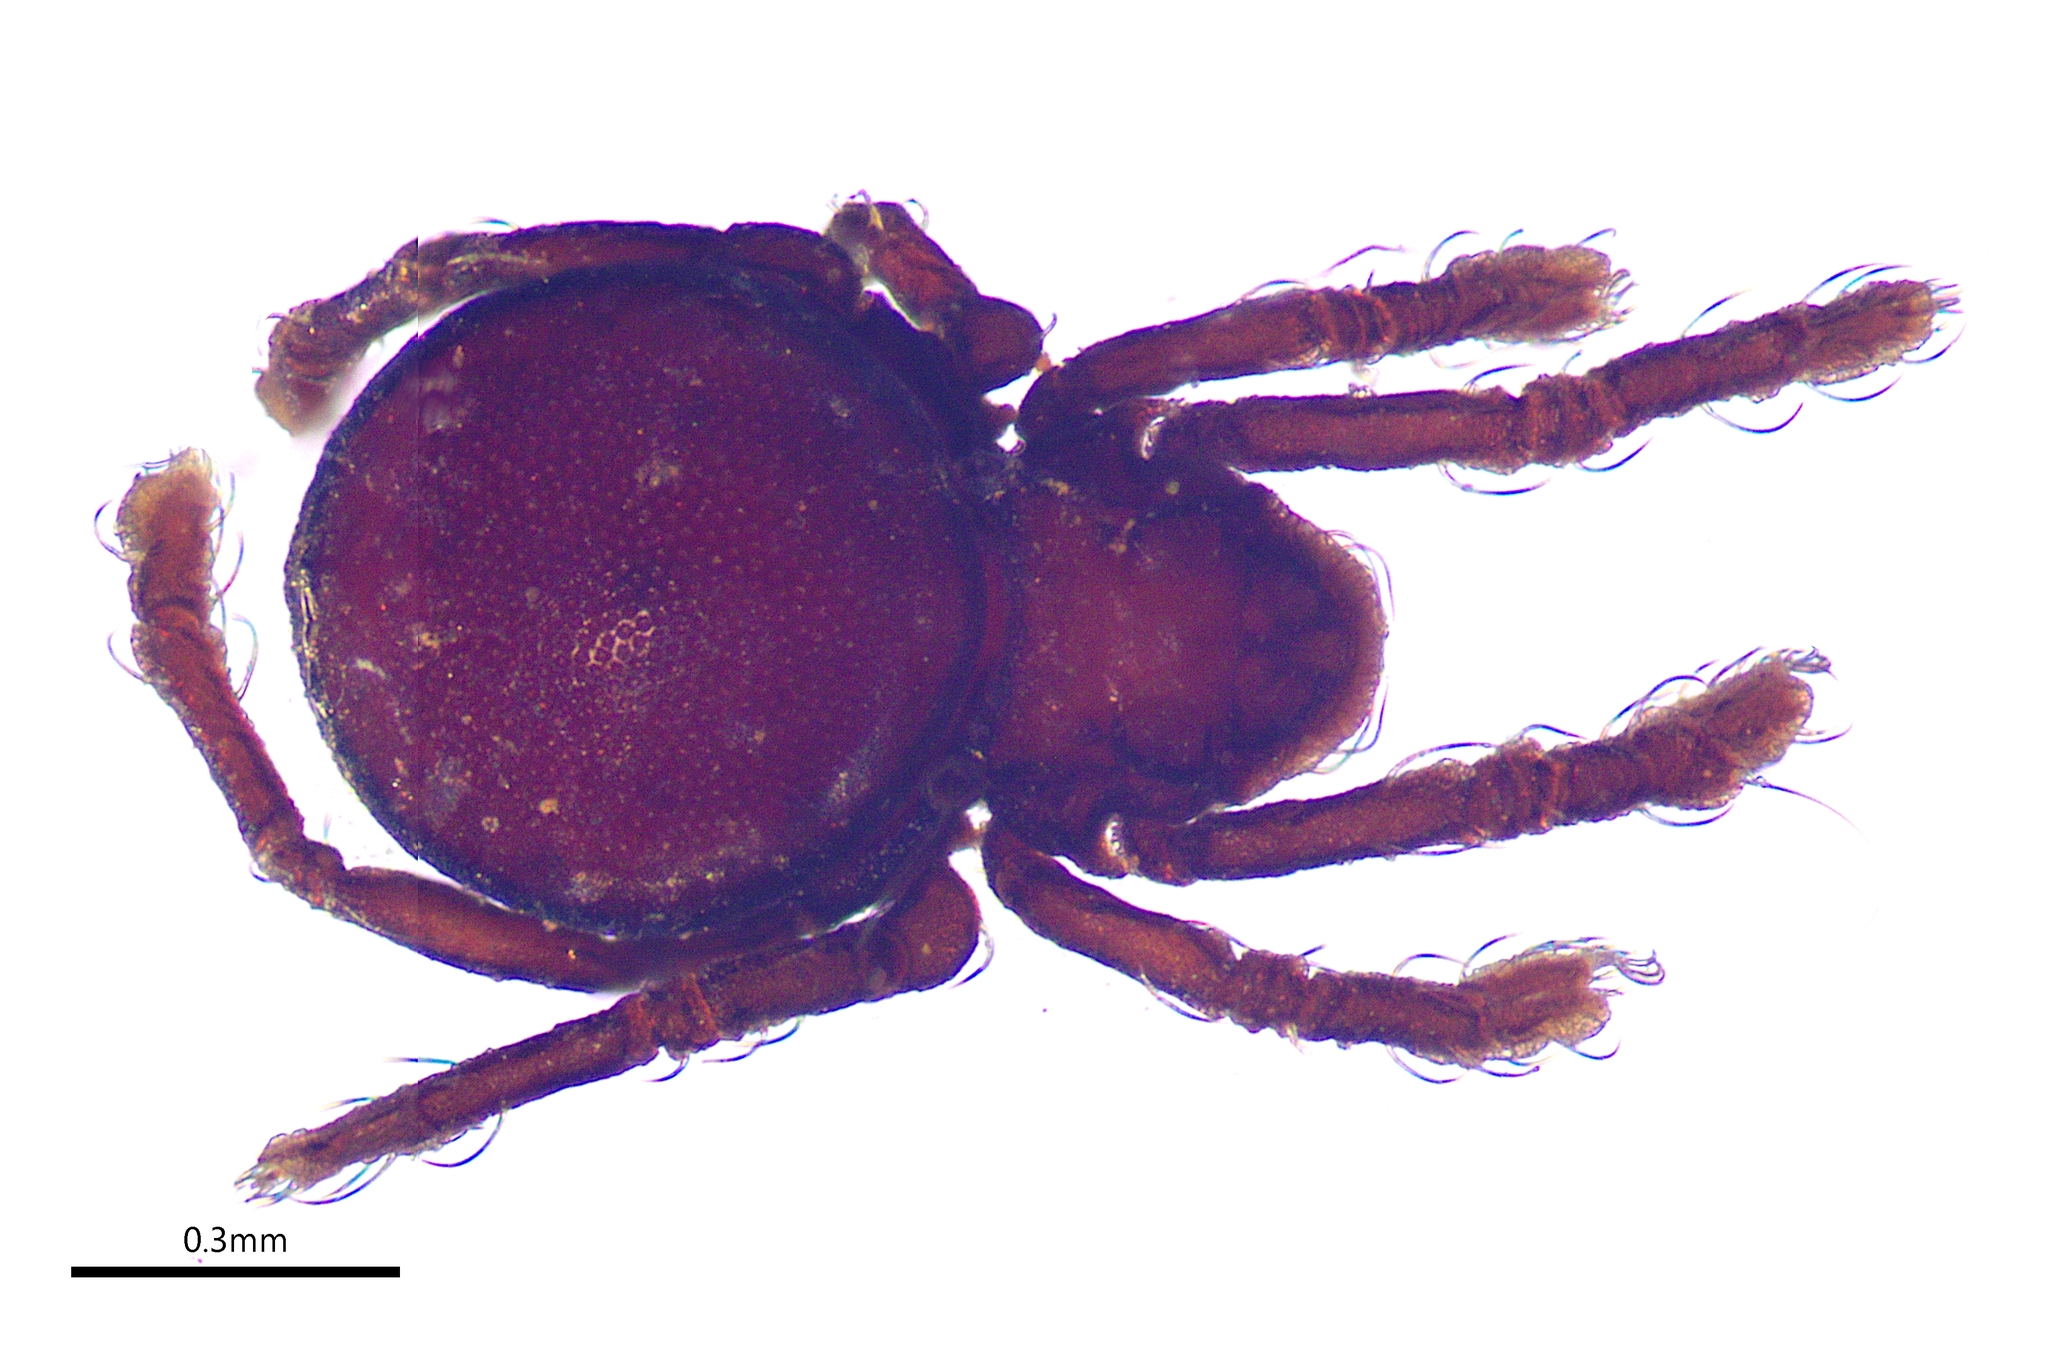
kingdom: Animalia
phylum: Arthropoda
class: Arachnida
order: Sarcoptiformes
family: Pheroliodidae
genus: Pheroliodes
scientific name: Pheroliodes monteithi
